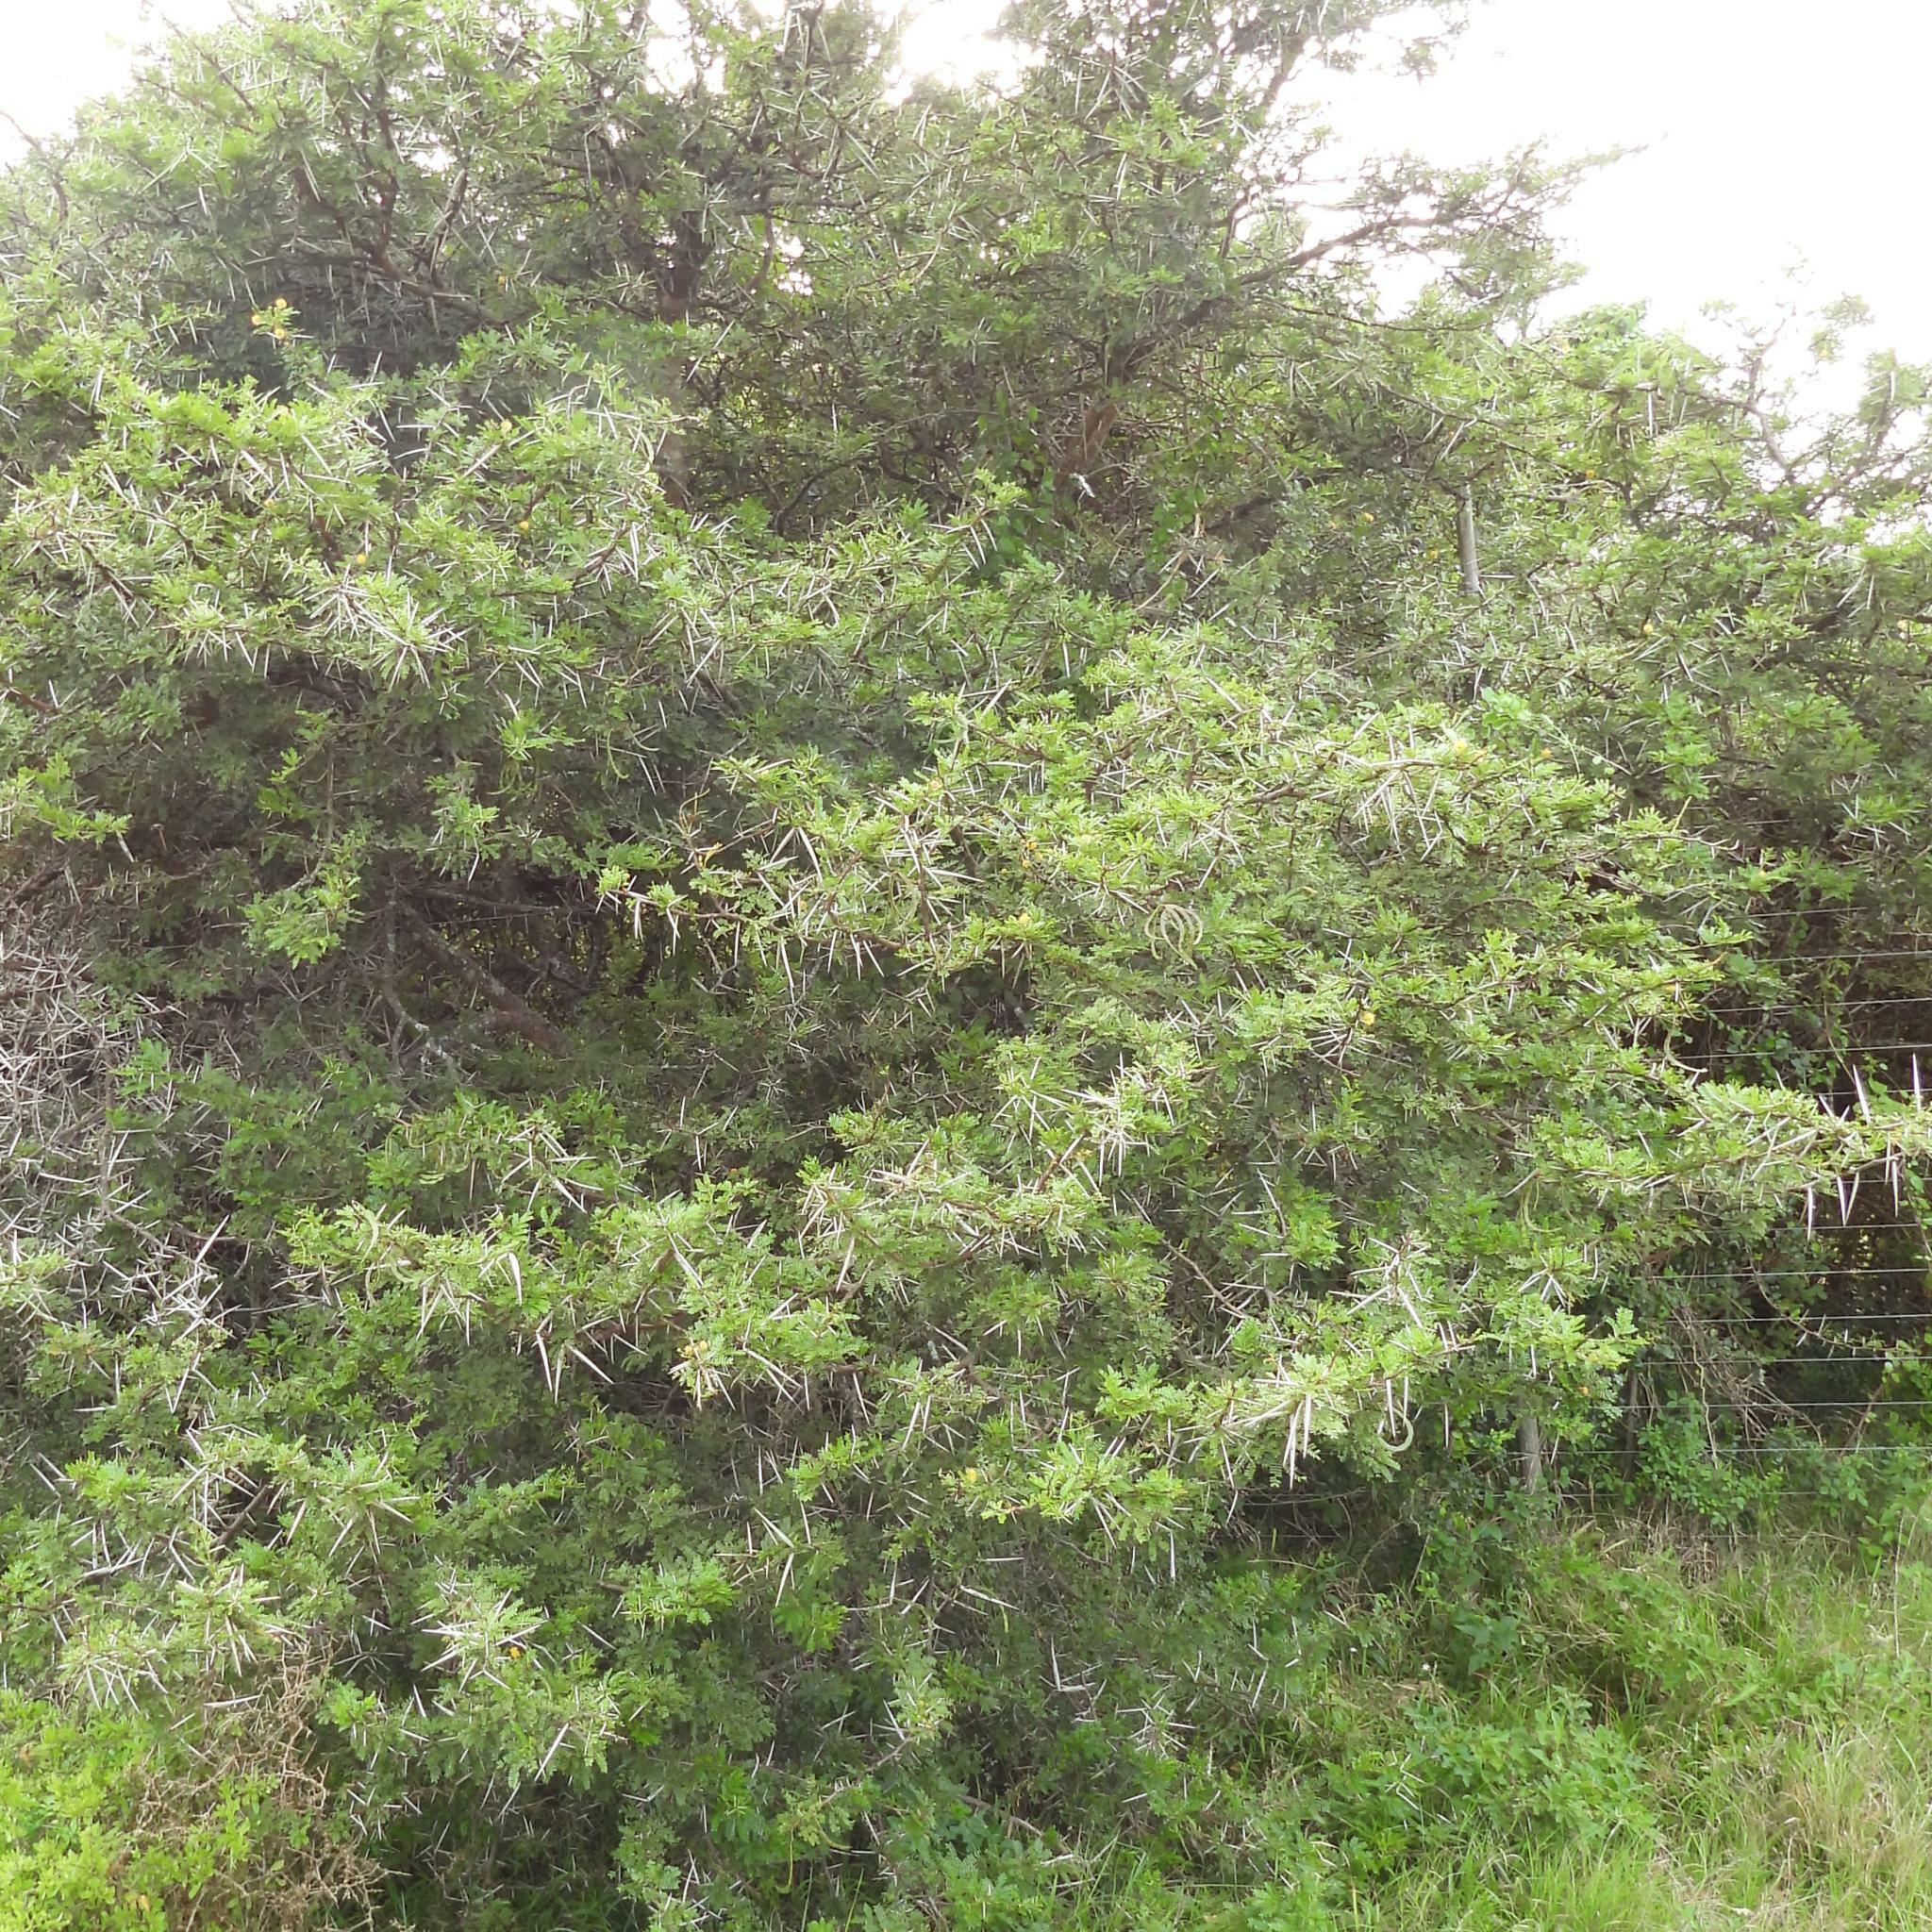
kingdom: Plantae
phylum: Tracheophyta
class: Magnoliopsida
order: Fabales
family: Fabaceae
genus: Vachellia
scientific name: Vachellia karroo
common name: Sweet thorn
